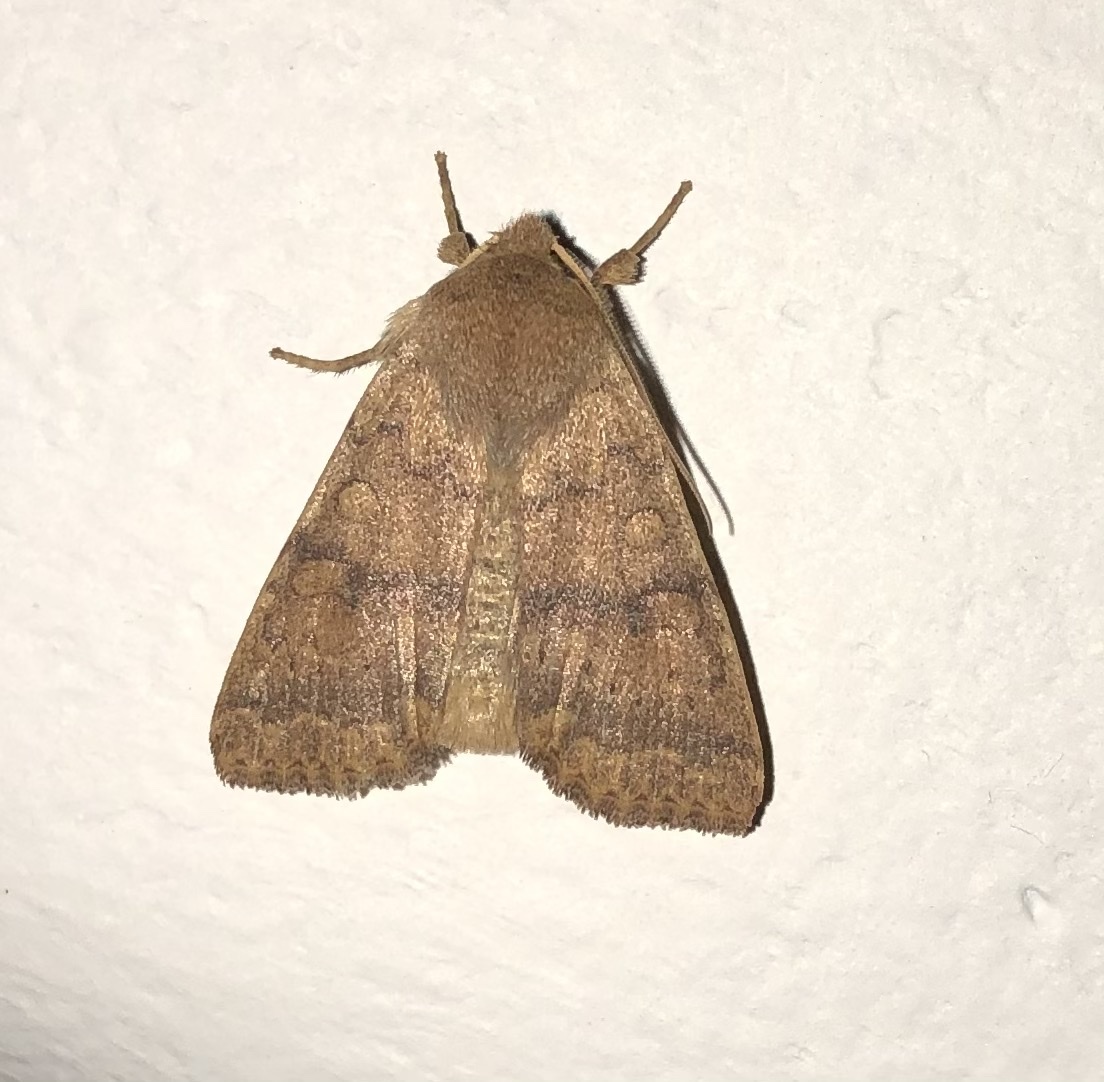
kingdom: Animalia
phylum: Arthropoda
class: Insecta
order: Lepidoptera
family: Noctuidae
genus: Agrochola
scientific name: Agrochola bicolorago
